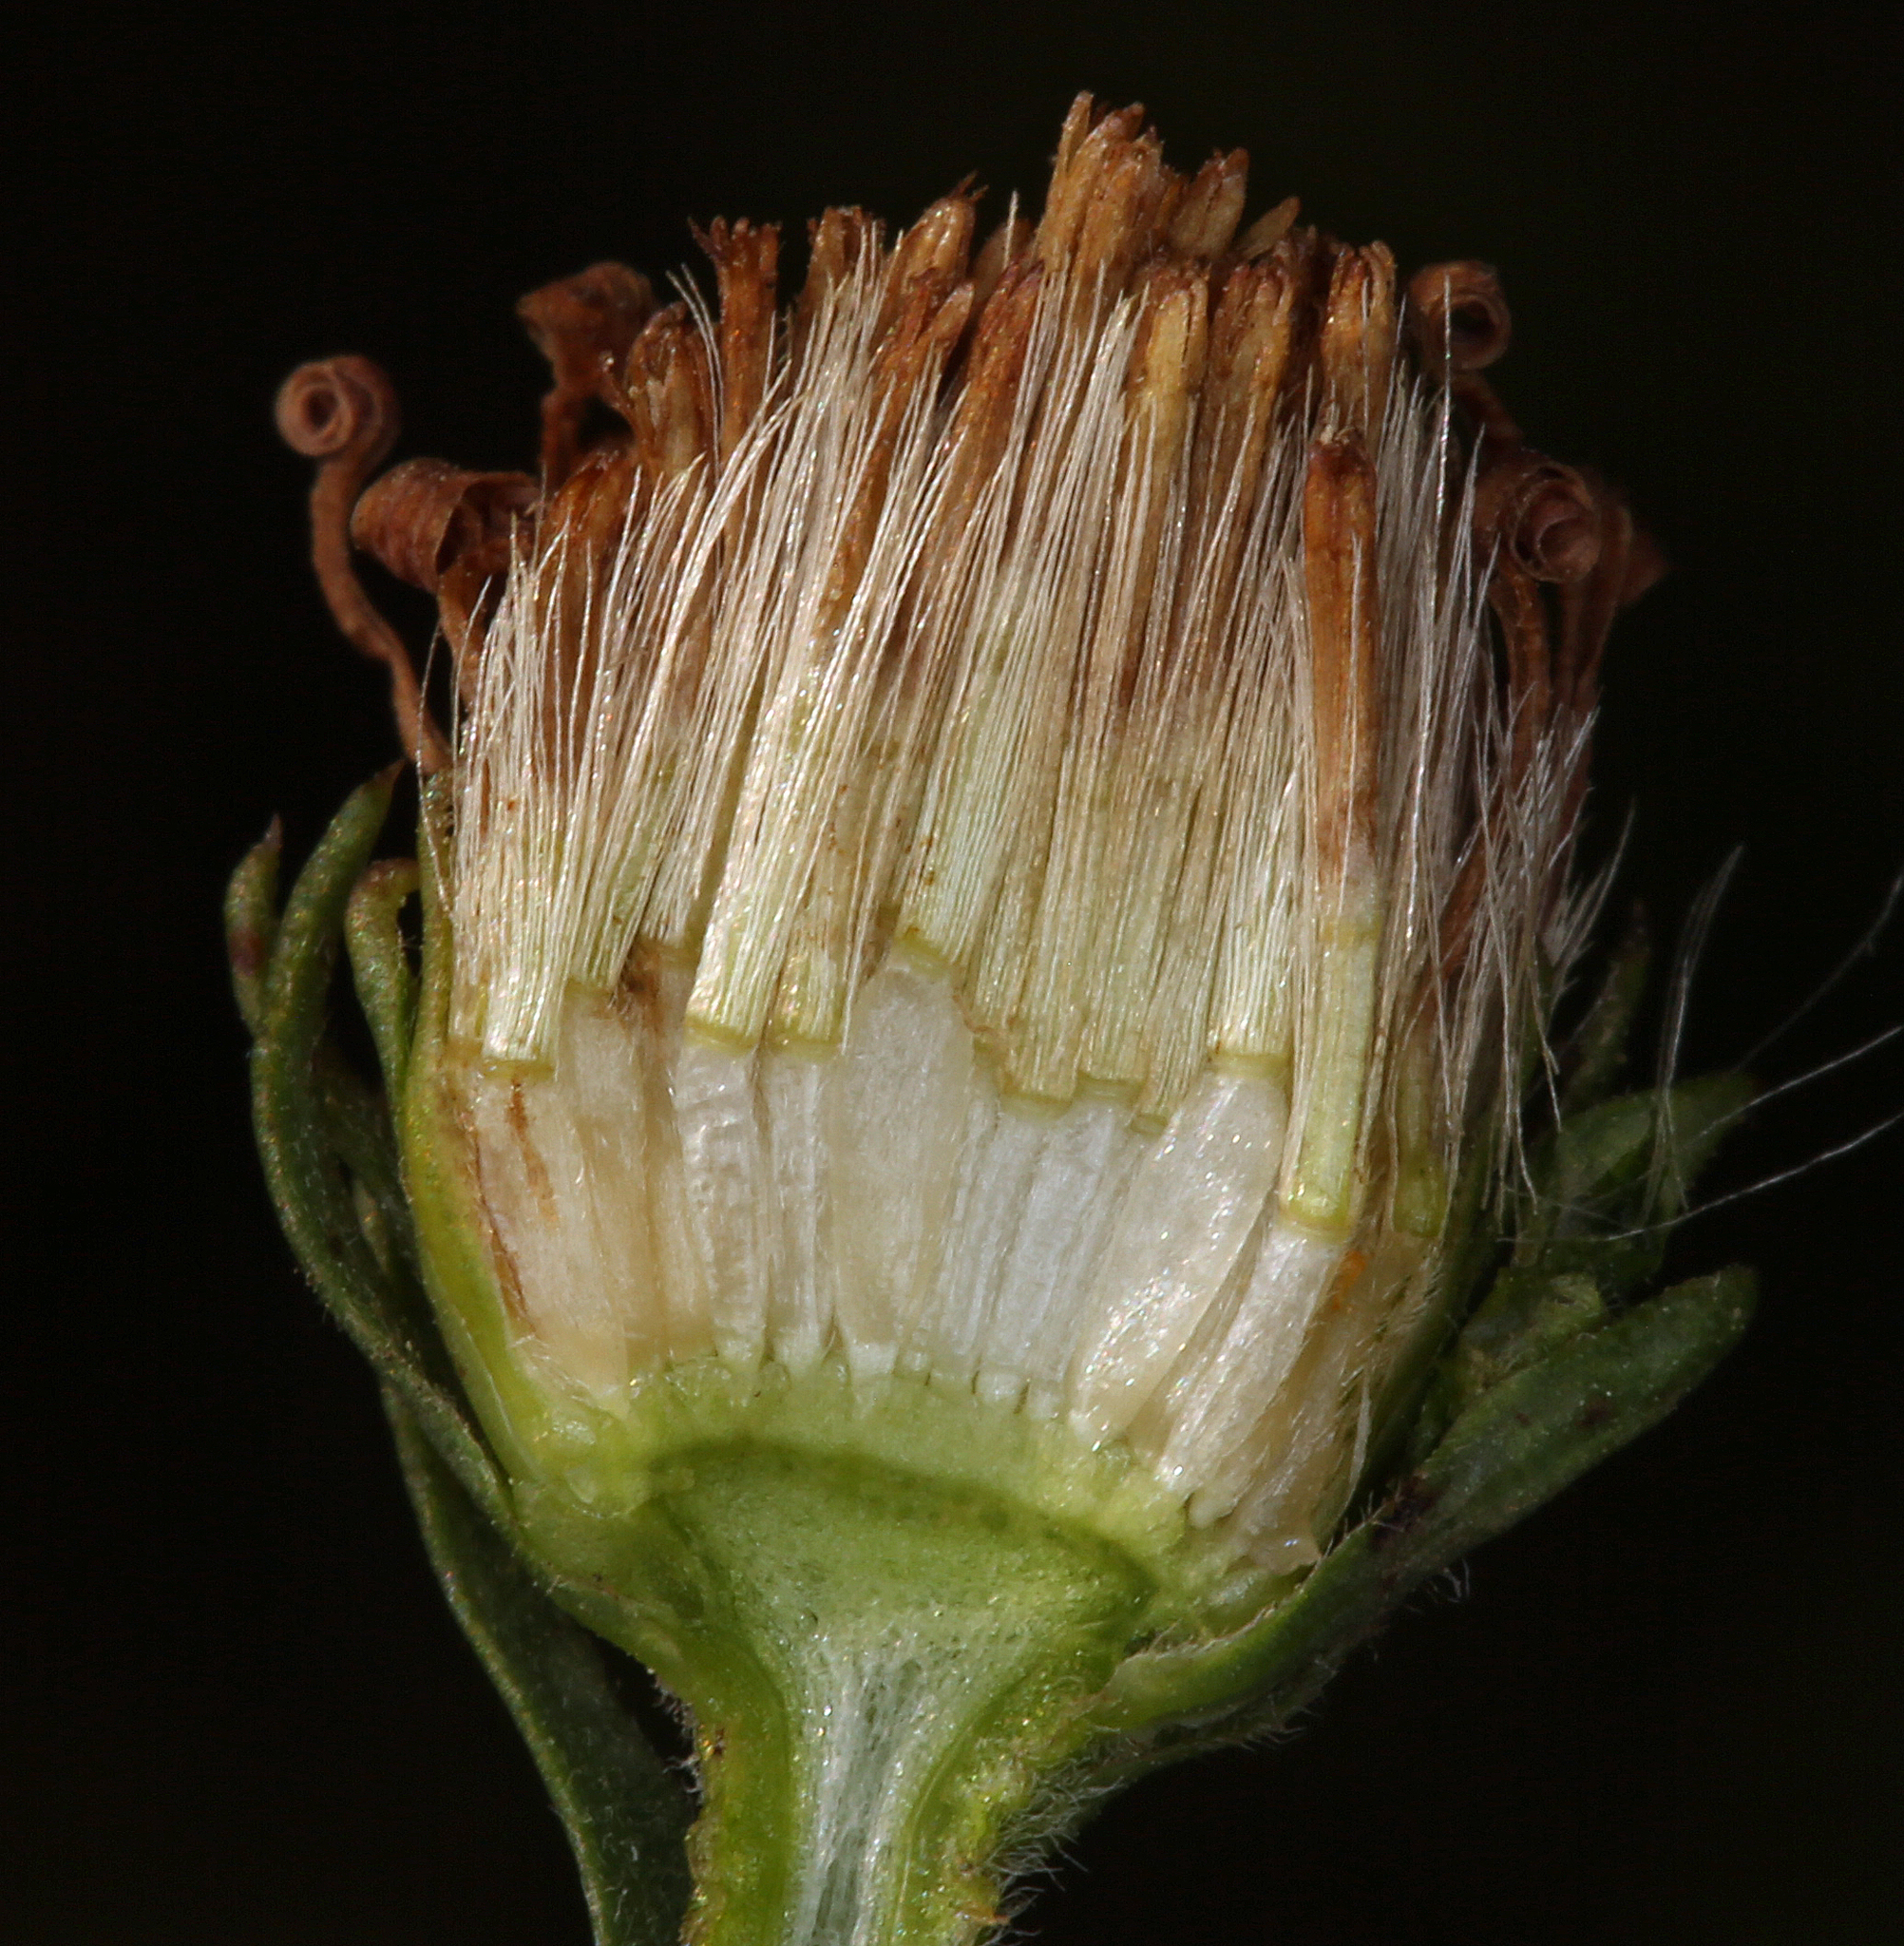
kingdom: Plantae
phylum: Tracheophyta
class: Magnoliopsida
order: Asterales
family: Asteraceae
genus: Symphyotrichum
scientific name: Symphyotrichum spathulatum
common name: Western mountain aster
